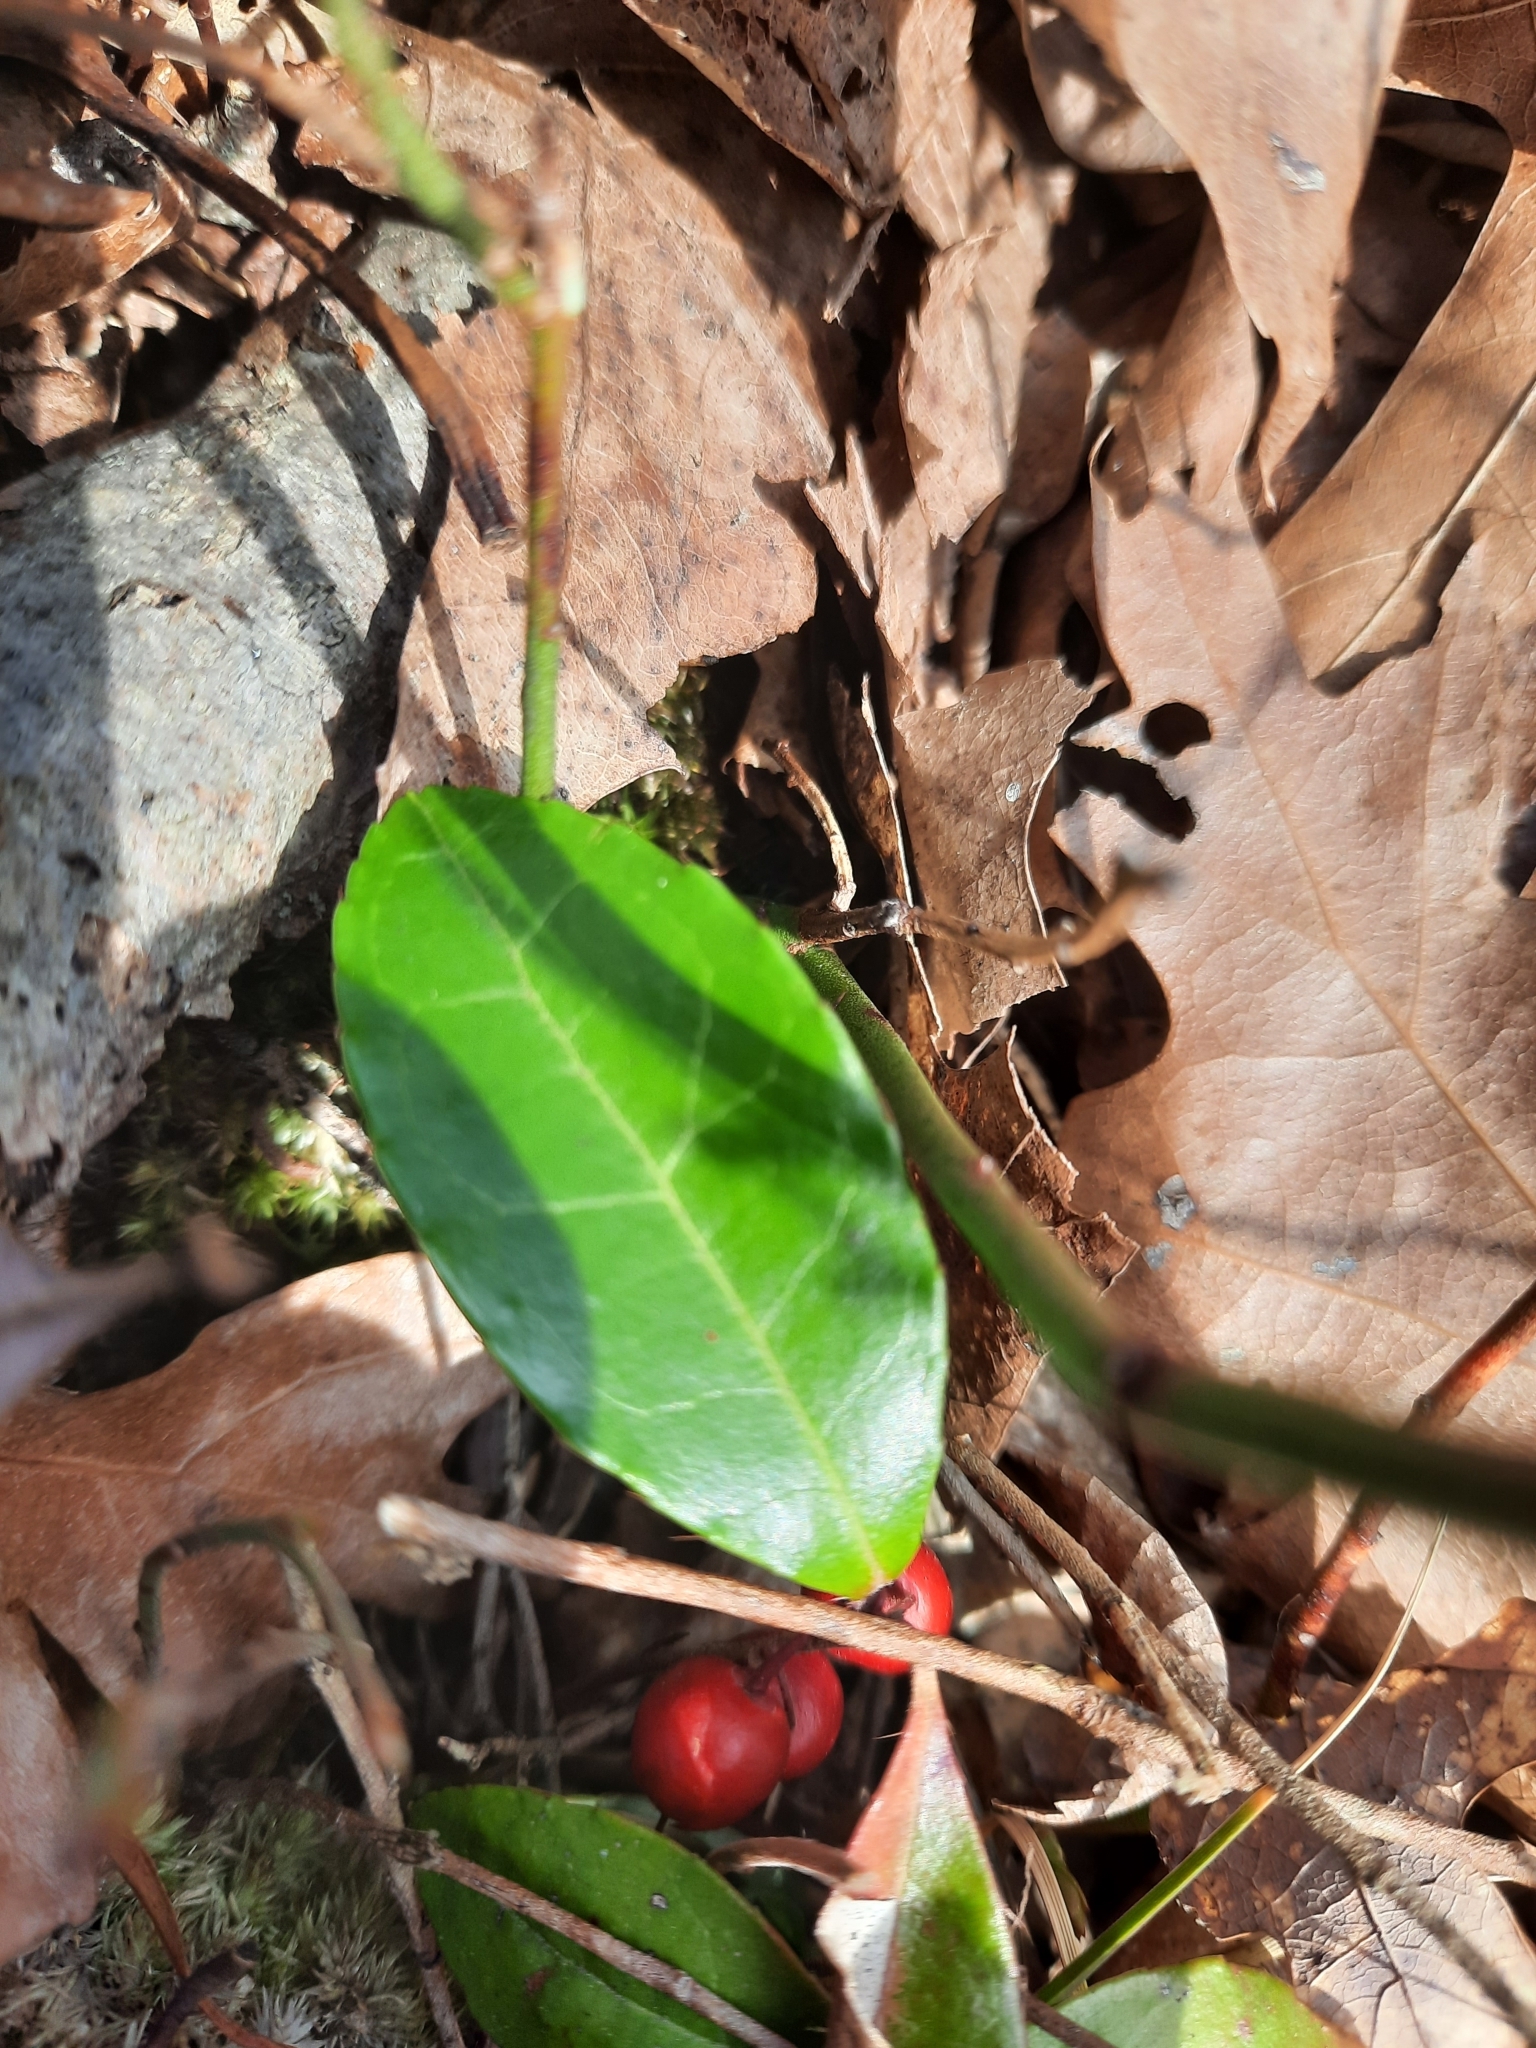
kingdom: Plantae
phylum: Tracheophyta
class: Magnoliopsida
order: Ericales
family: Ericaceae
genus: Gaultheria
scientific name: Gaultheria procumbens
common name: Checkerberry
